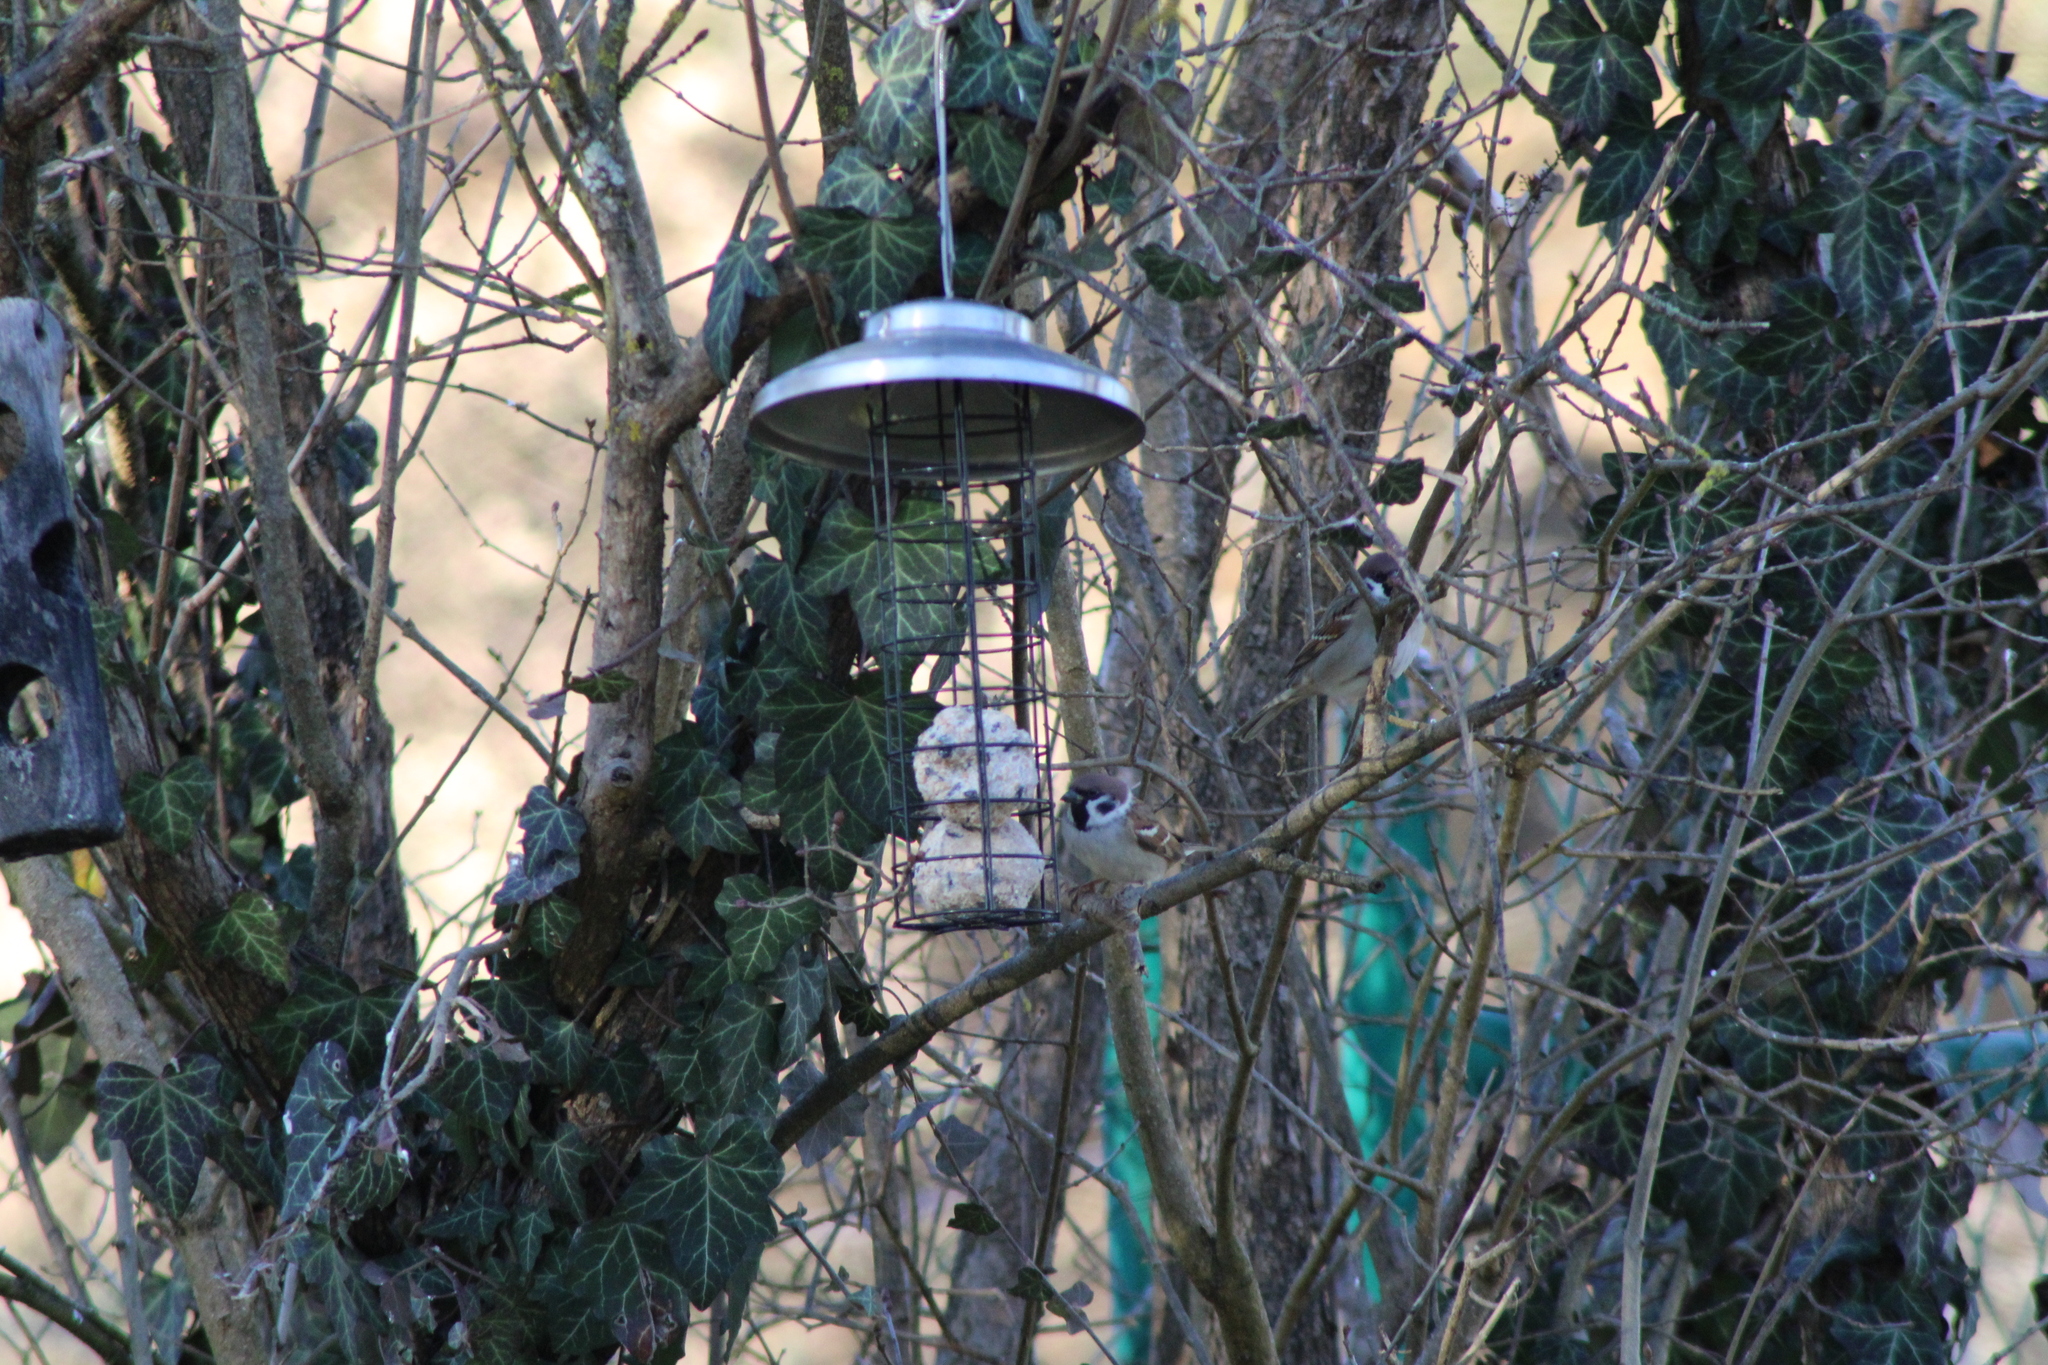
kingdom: Animalia
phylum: Chordata
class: Aves
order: Passeriformes
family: Passeridae
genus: Passer
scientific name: Passer montanus
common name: Eurasian tree sparrow
